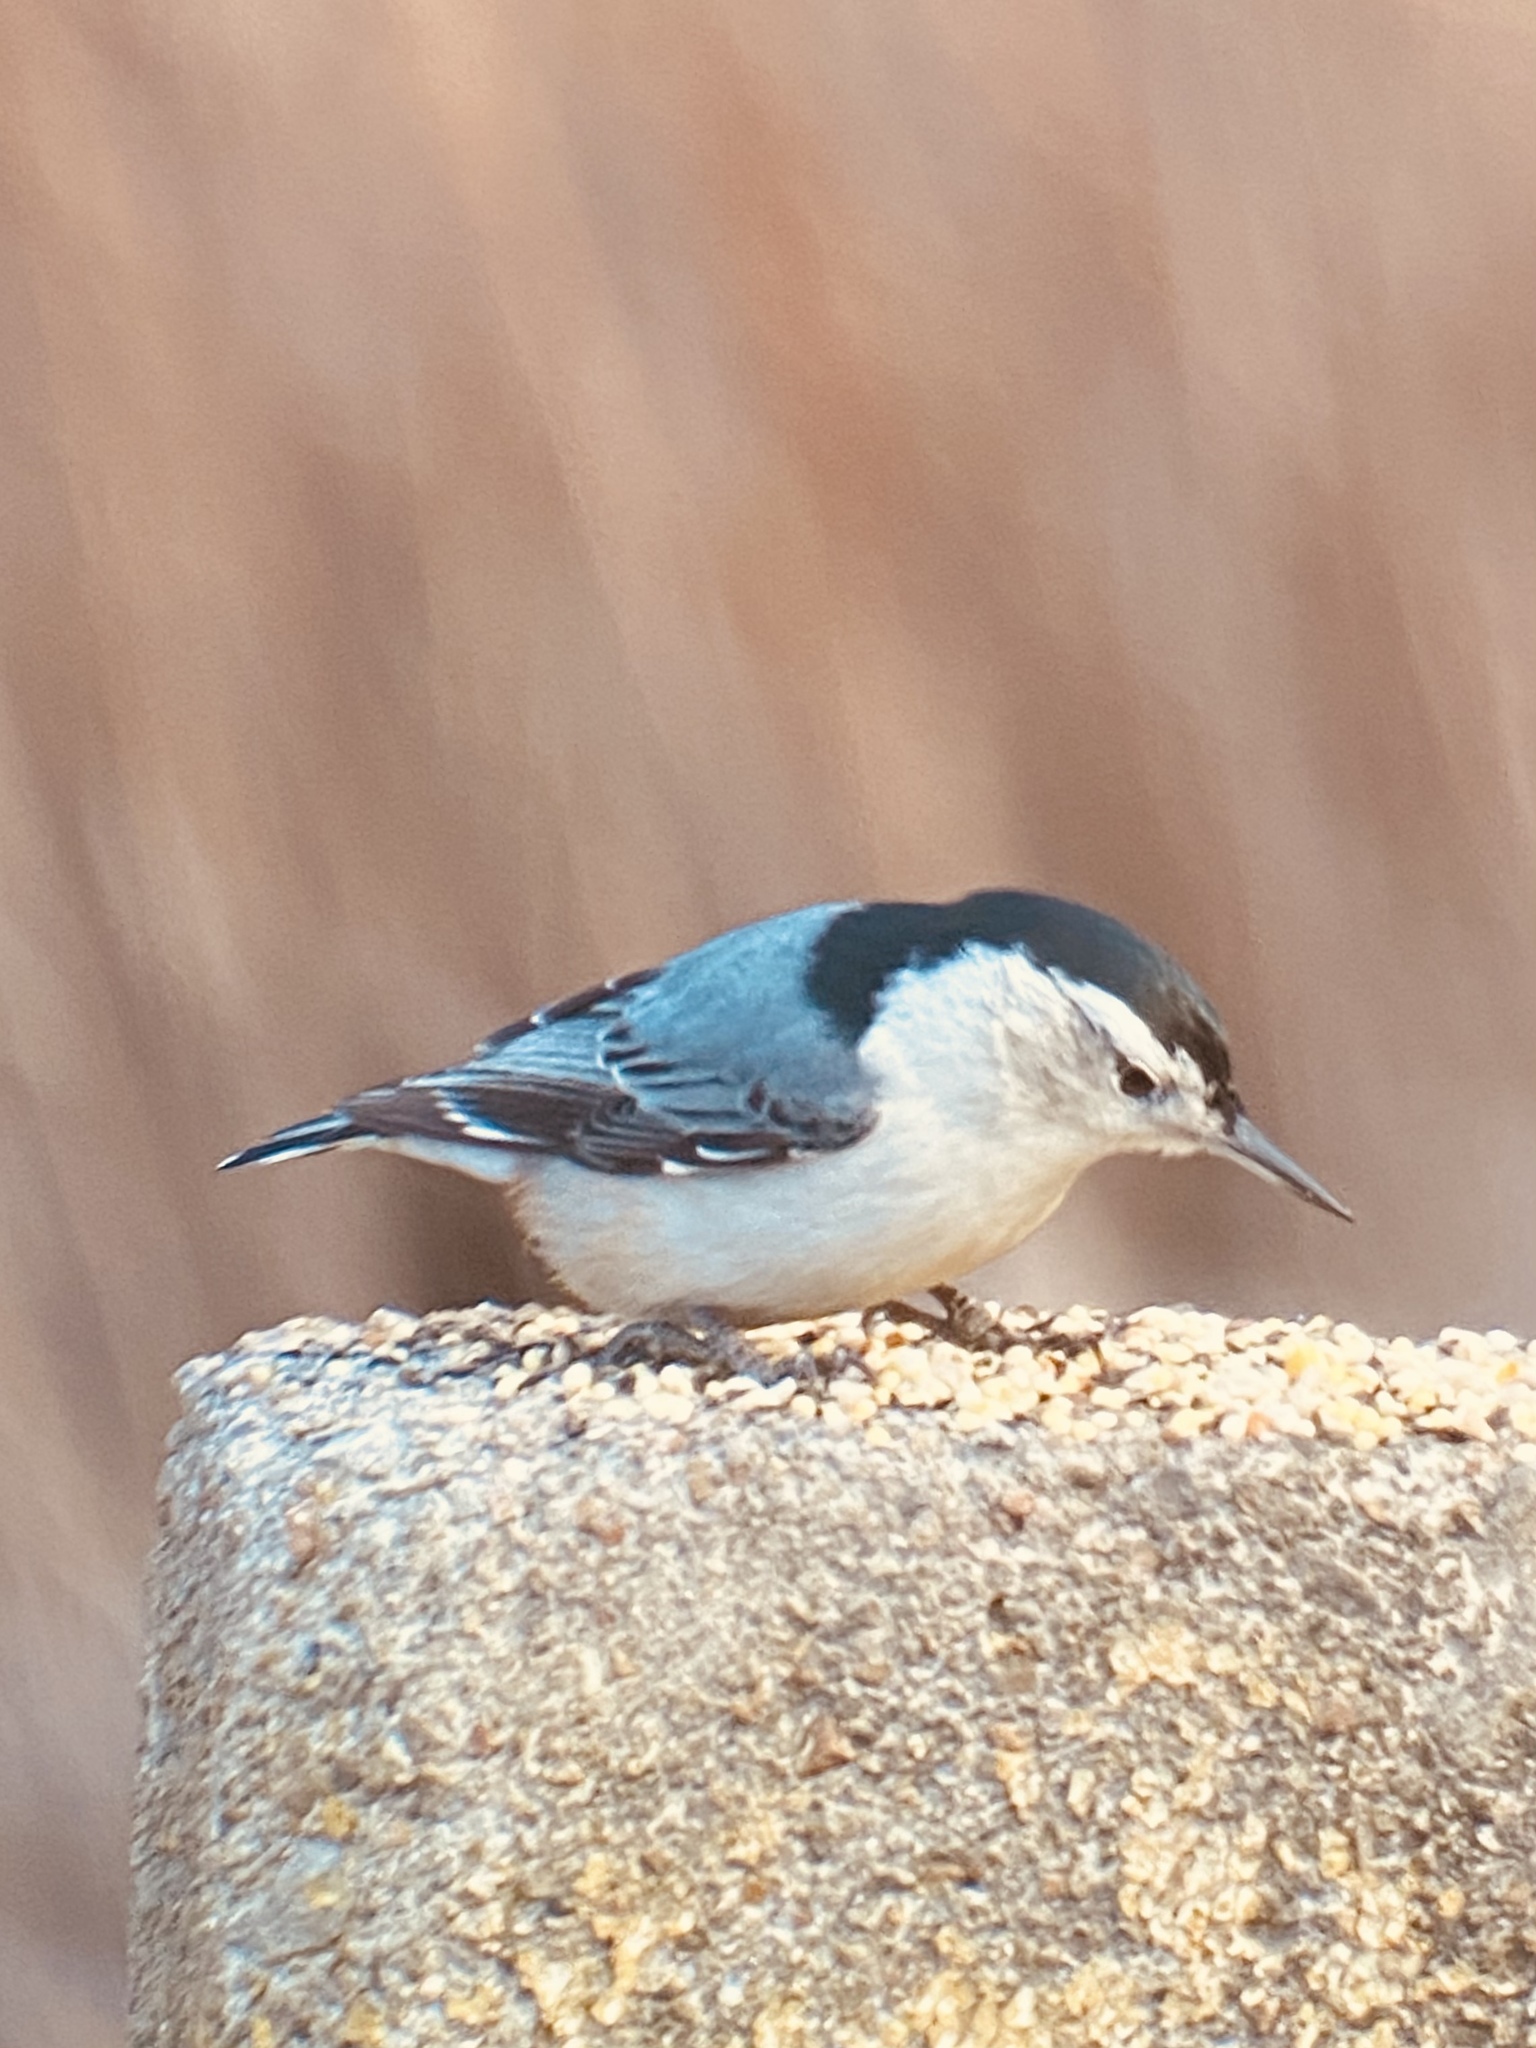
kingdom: Animalia
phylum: Chordata
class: Aves
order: Passeriformes
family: Sittidae
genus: Sitta
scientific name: Sitta carolinensis
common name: White-breasted nuthatch
